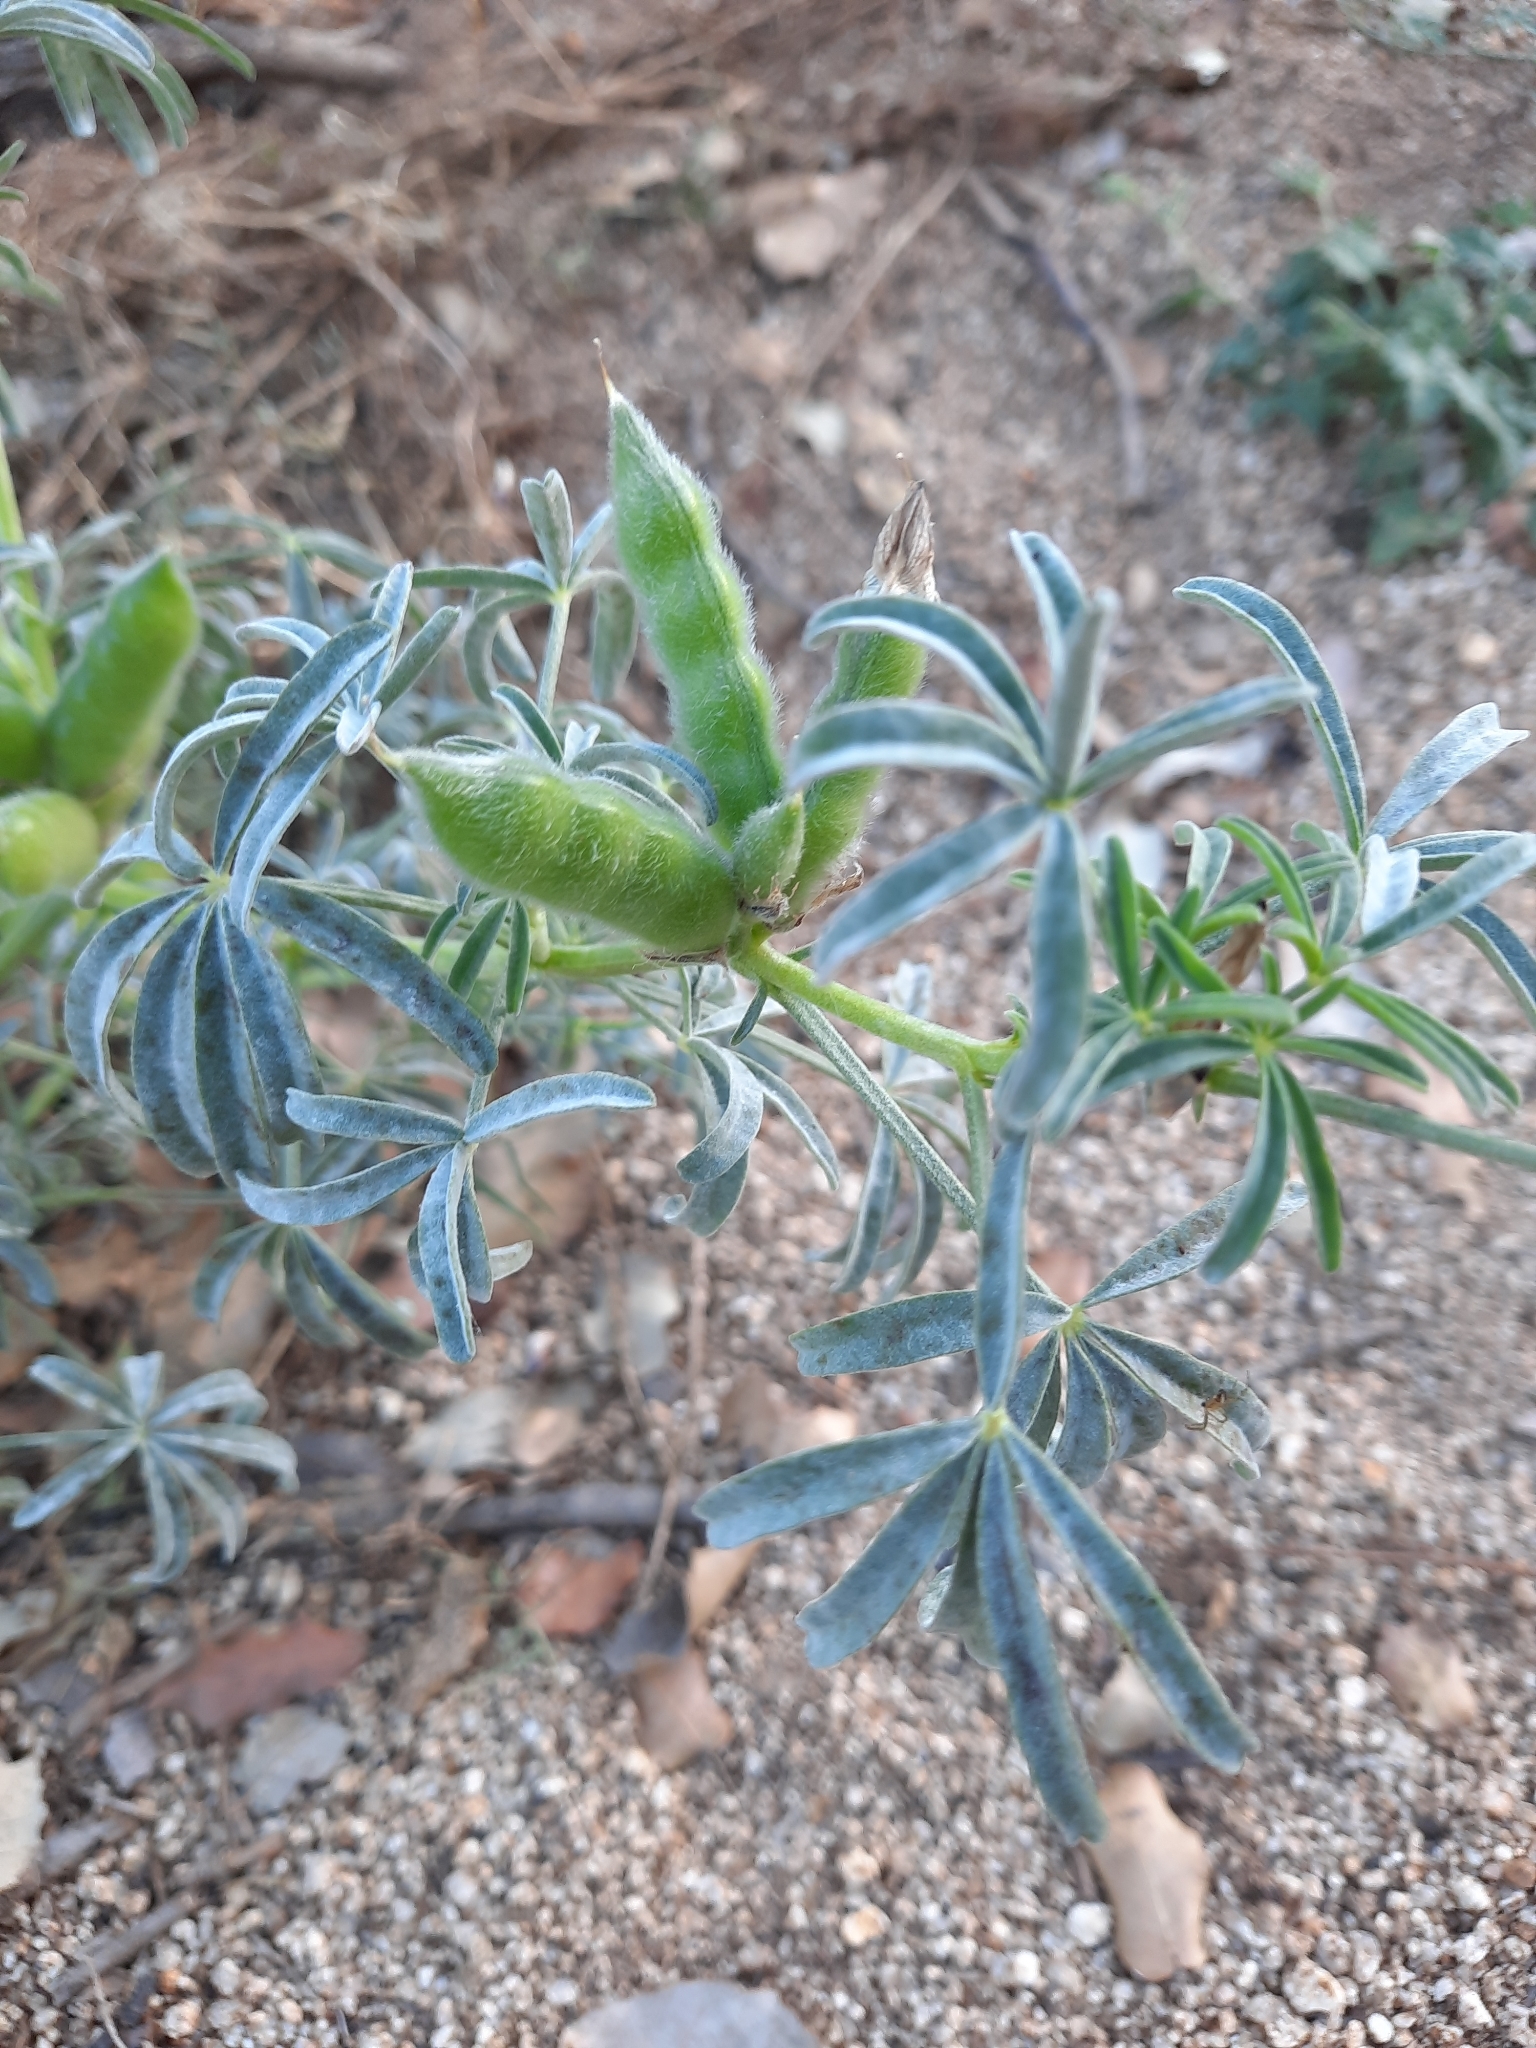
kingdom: Plantae
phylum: Tracheophyta
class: Magnoliopsida
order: Fabales
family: Fabaceae
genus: Lupinus
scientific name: Lupinus angustifolius
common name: Narrow-leaved lupin
